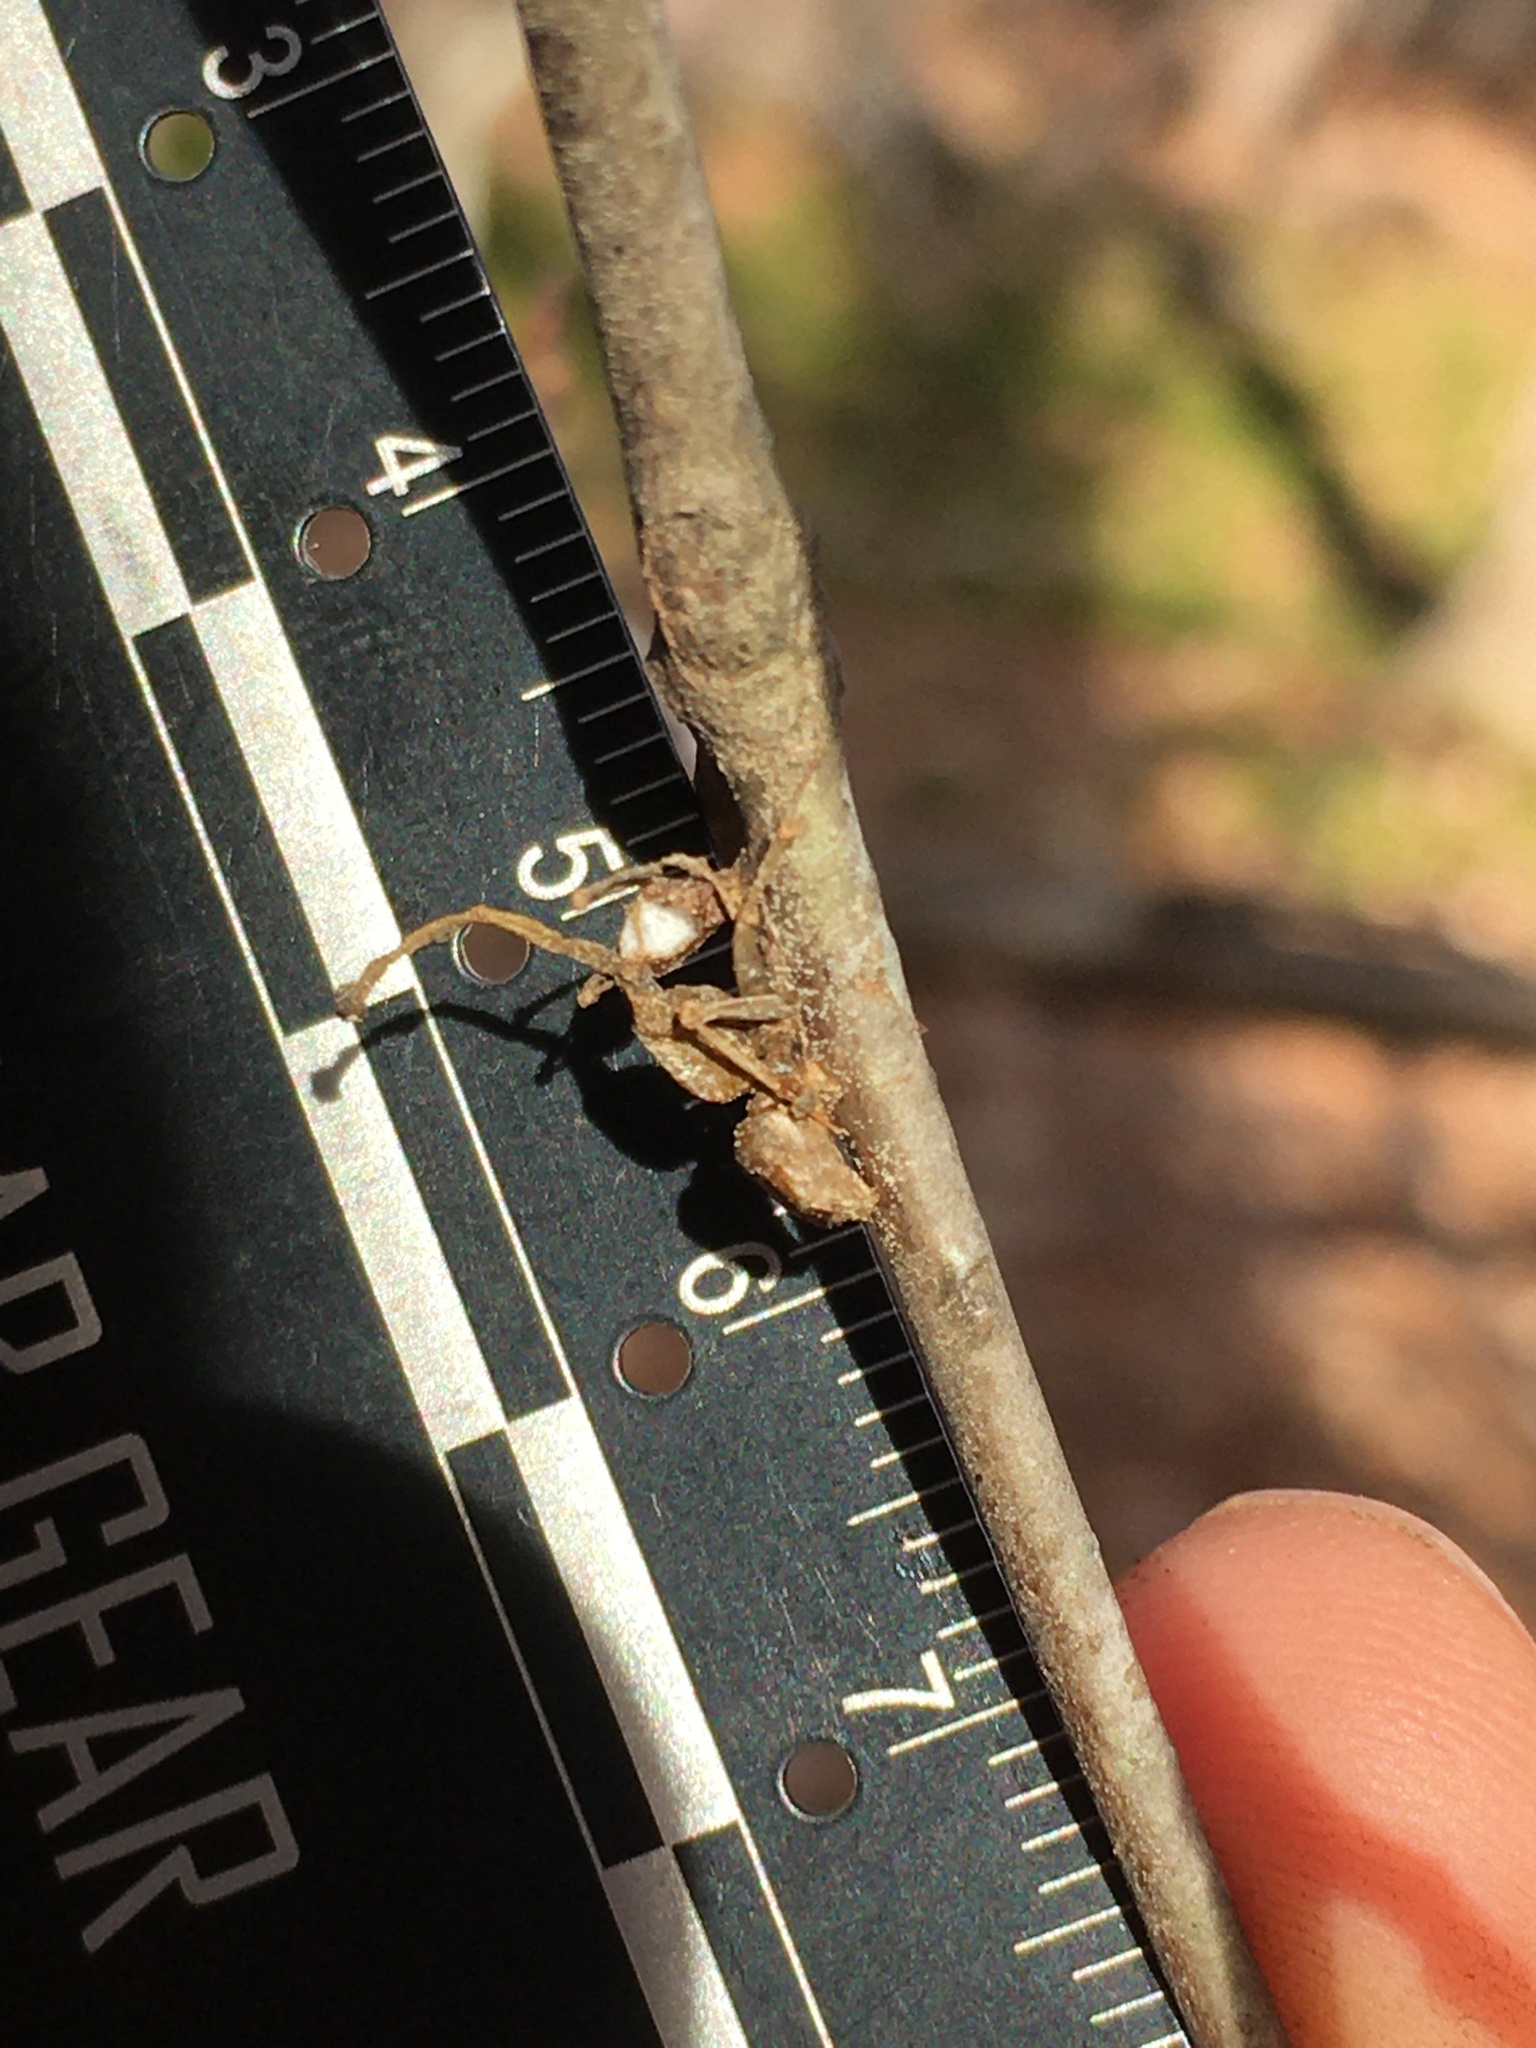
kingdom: Fungi
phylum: Ascomycota
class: Sordariomycetes
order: Hypocreales
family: Ophiocordycipitaceae
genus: Ophiocordyceps
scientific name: Ophiocordyceps kimflemingiae
